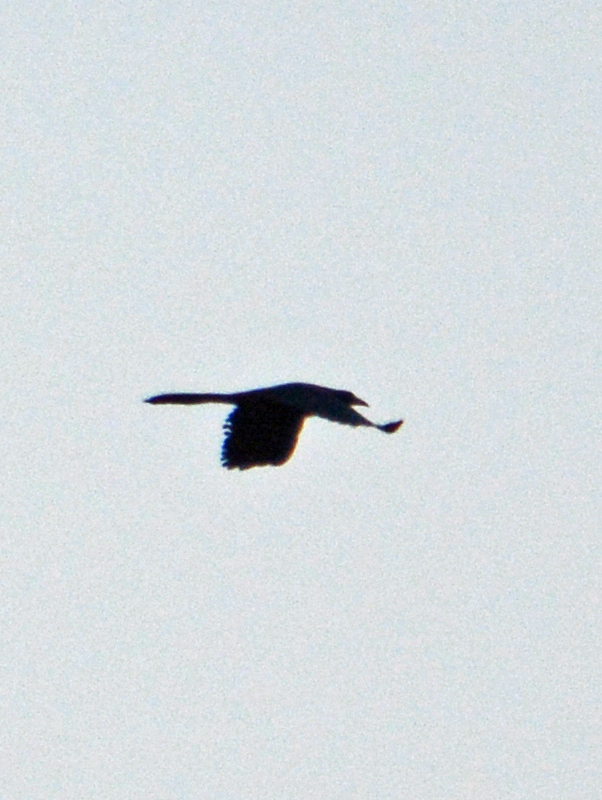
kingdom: Animalia
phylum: Chordata
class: Aves
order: Passeriformes
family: Icteridae
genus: Quiscalus
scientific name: Quiscalus mexicanus
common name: Great-tailed grackle
